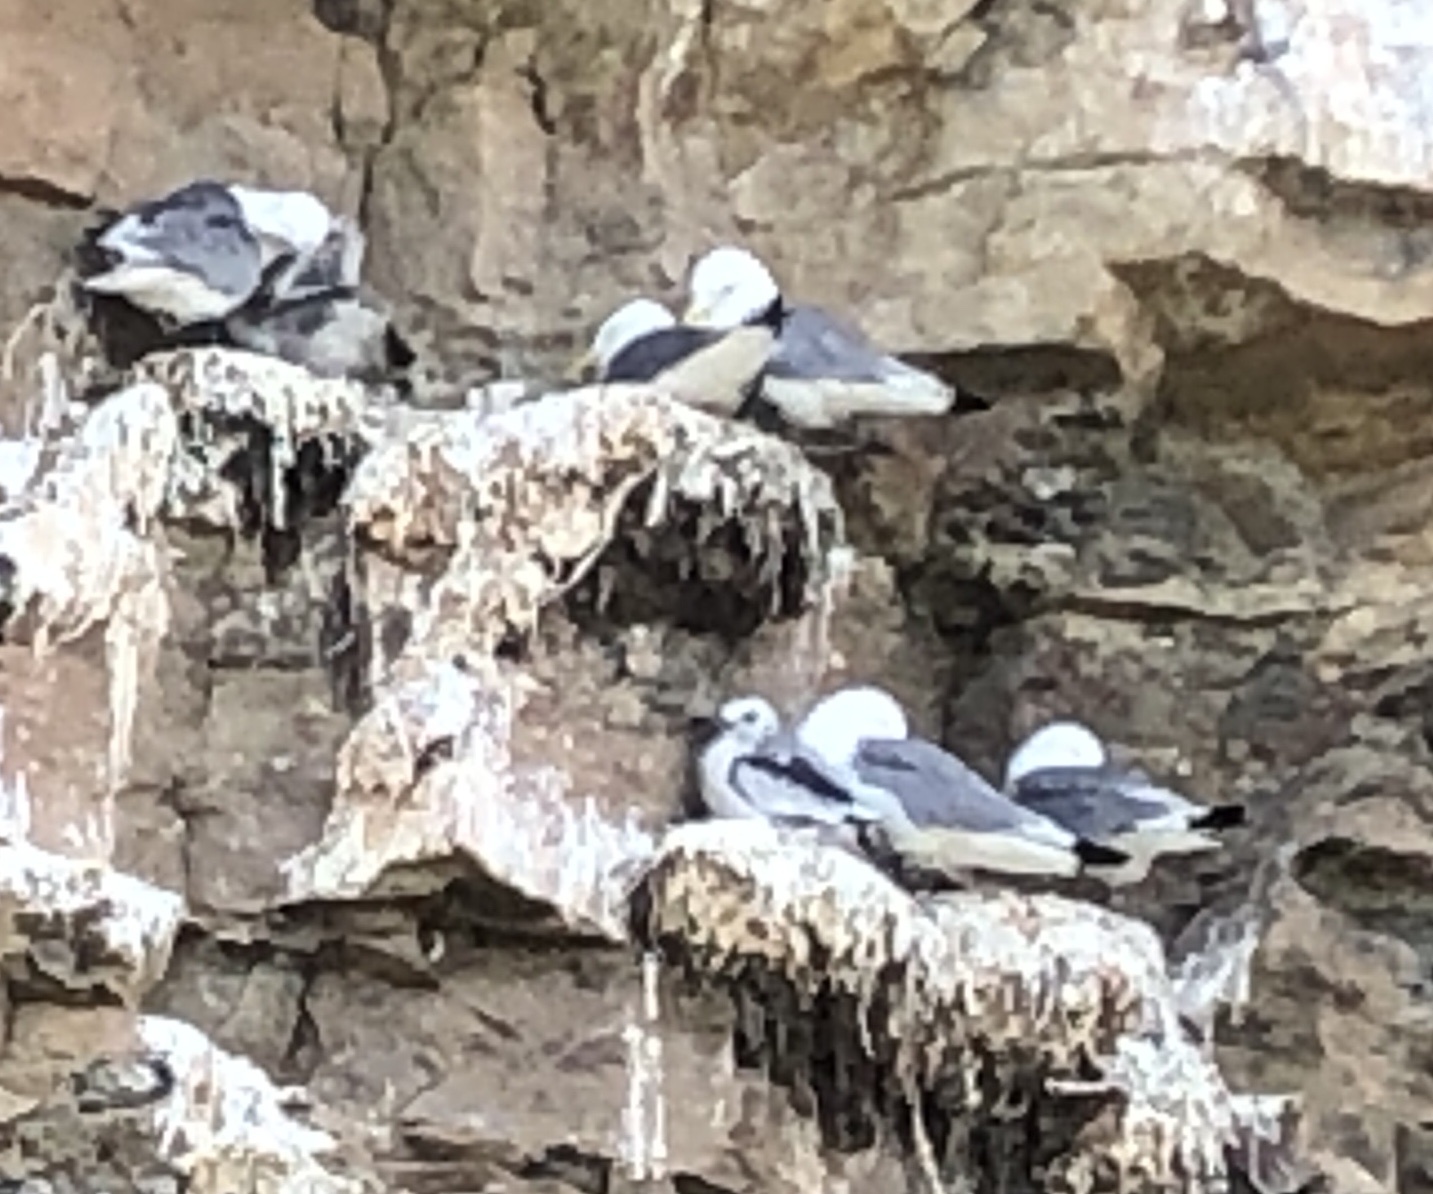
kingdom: Animalia
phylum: Chordata
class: Aves
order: Charadriiformes
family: Laridae
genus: Rissa
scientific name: Rissa tridactyla
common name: Black-legged kittiwake
